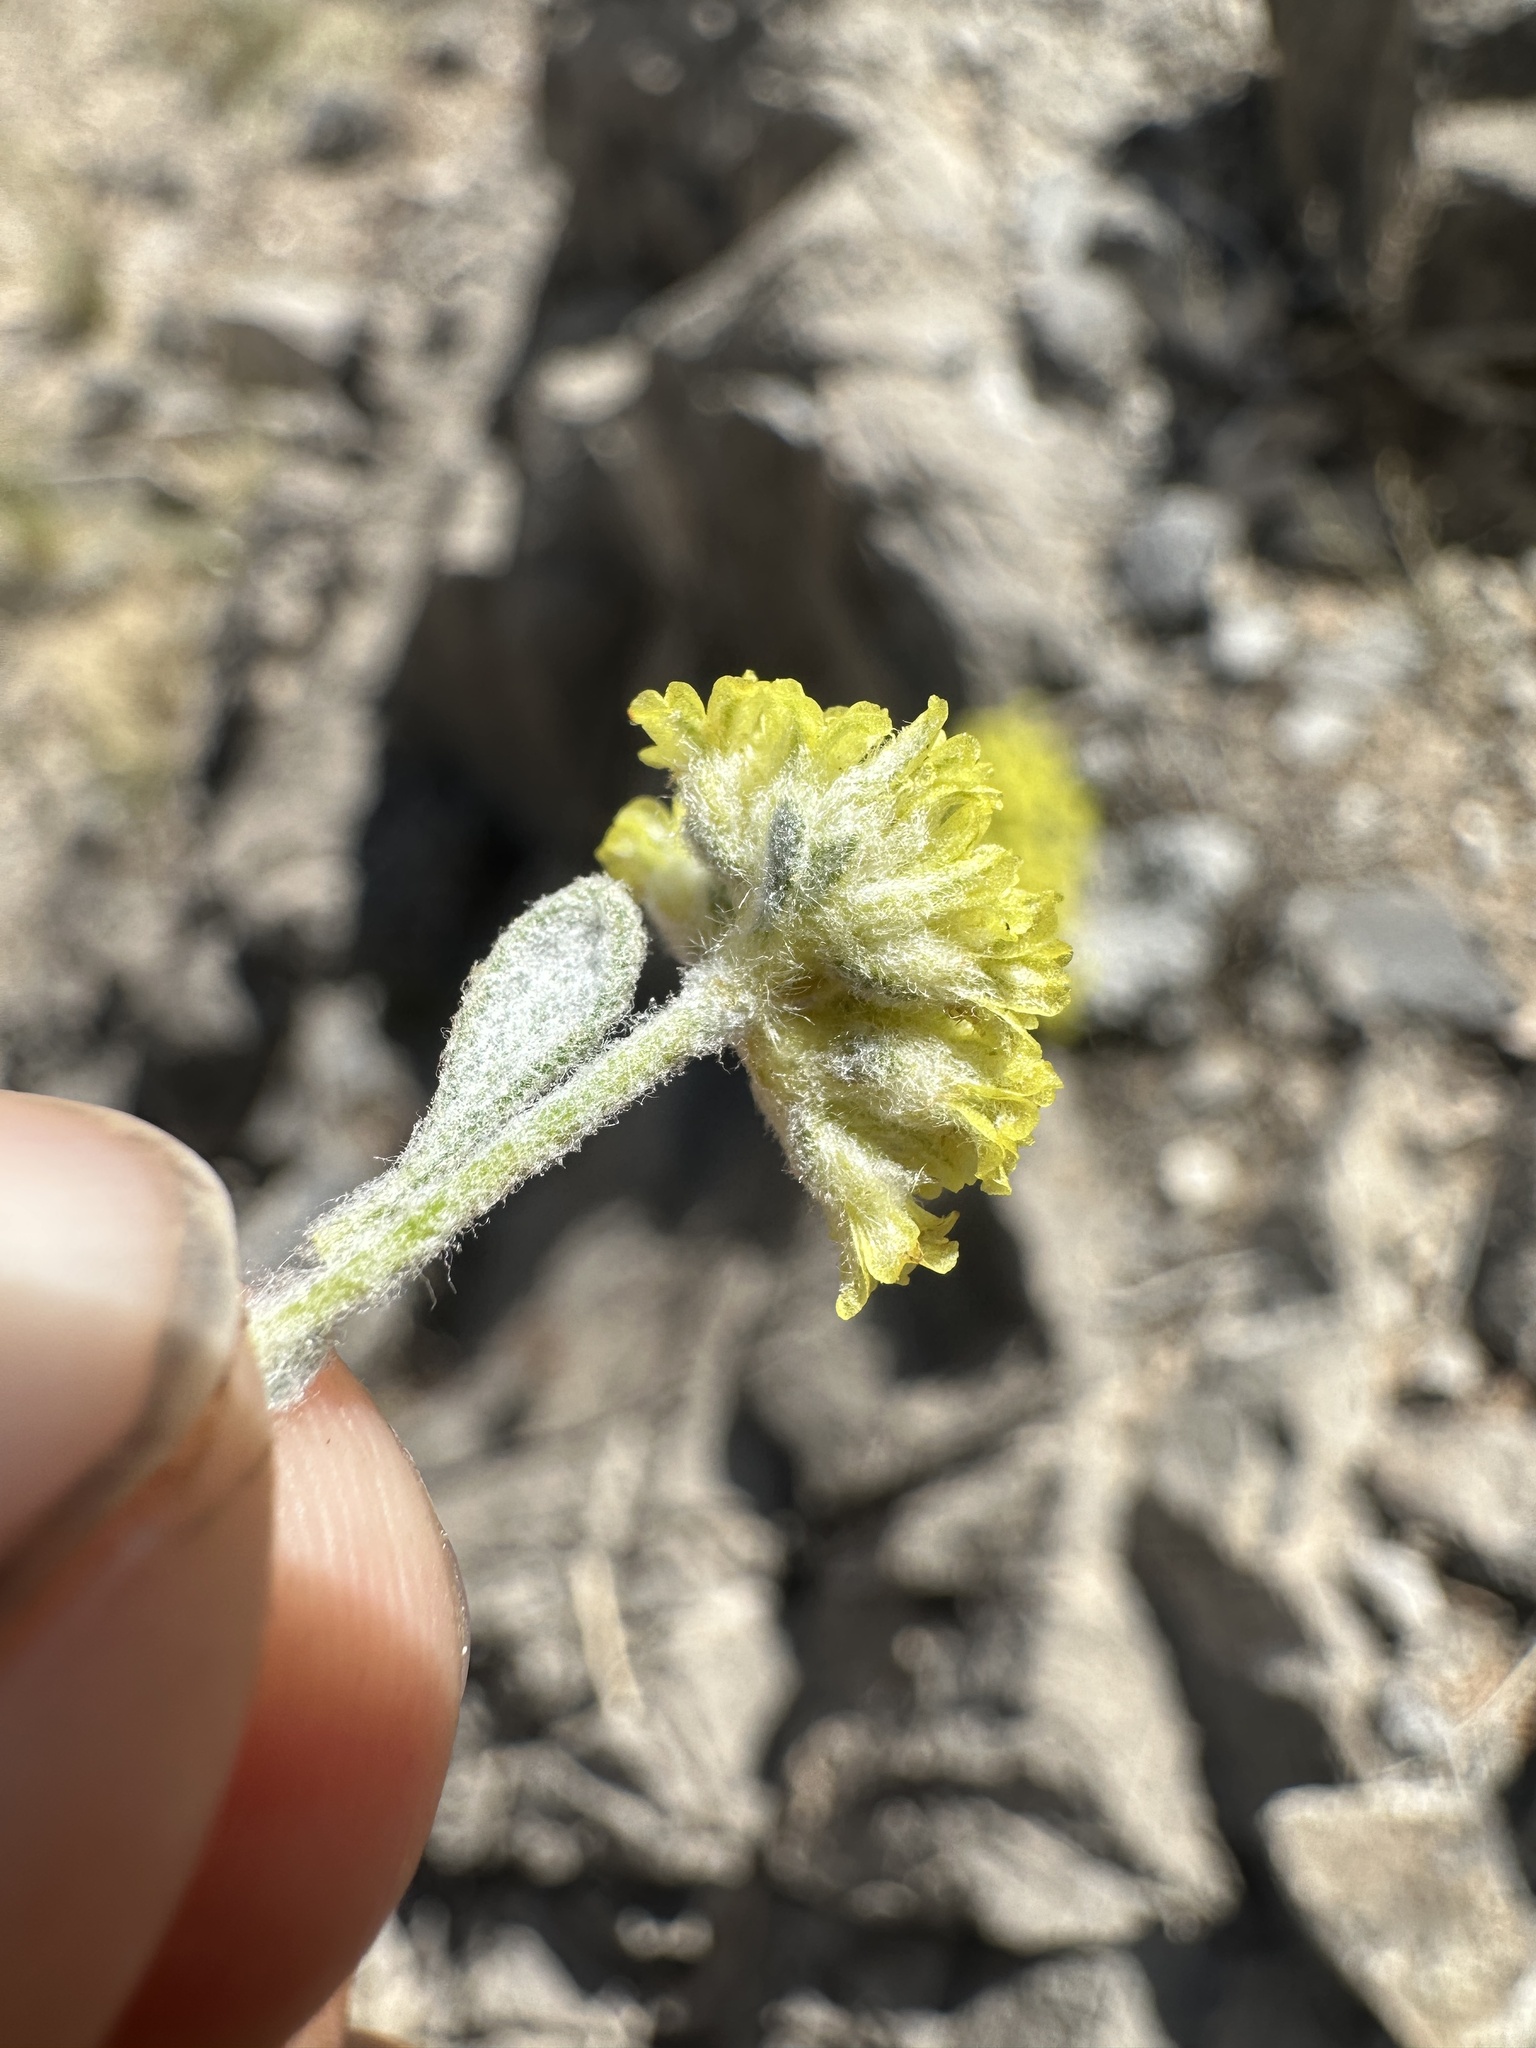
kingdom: Plantae
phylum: Tracheophyta
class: Magnoliopsida
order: Caryophyllales
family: Polygonaceae
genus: Eriogonum
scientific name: Eriogonum shockleyi
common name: Shockley's wild buckwheat
